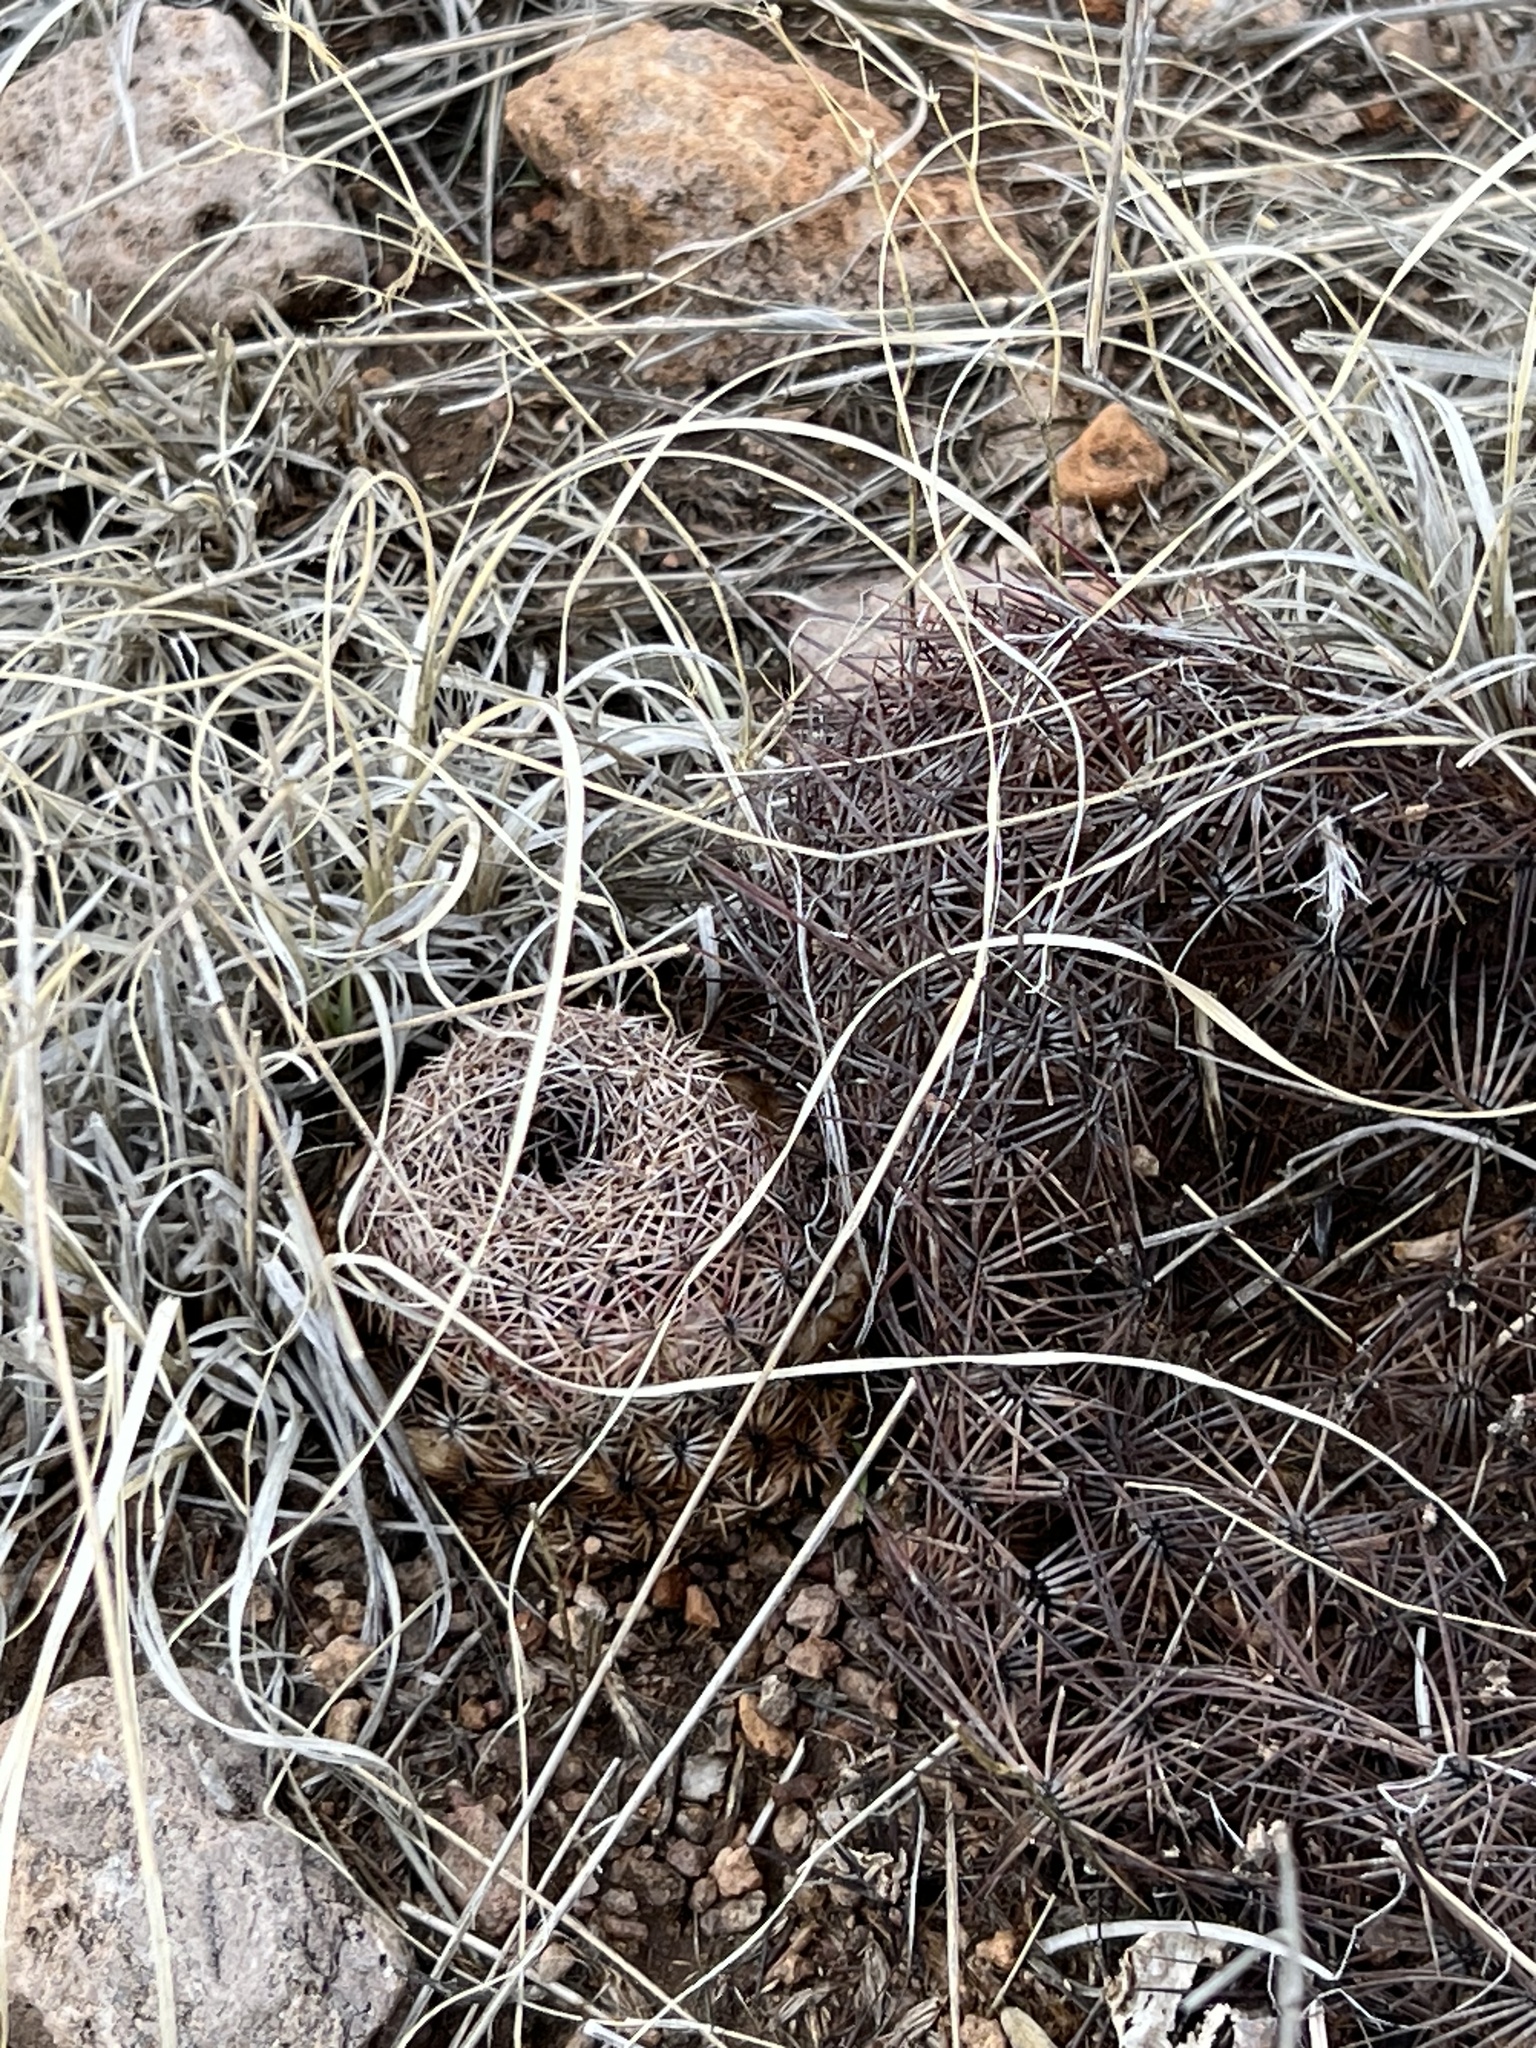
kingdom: Plantae
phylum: Tracheophyta
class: Magnoliopsida
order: Caryophyllales
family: Cactaceae
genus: Sclerocactus
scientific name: Sclerocactus johnsonii
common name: Eight-spine fishhook cactus
